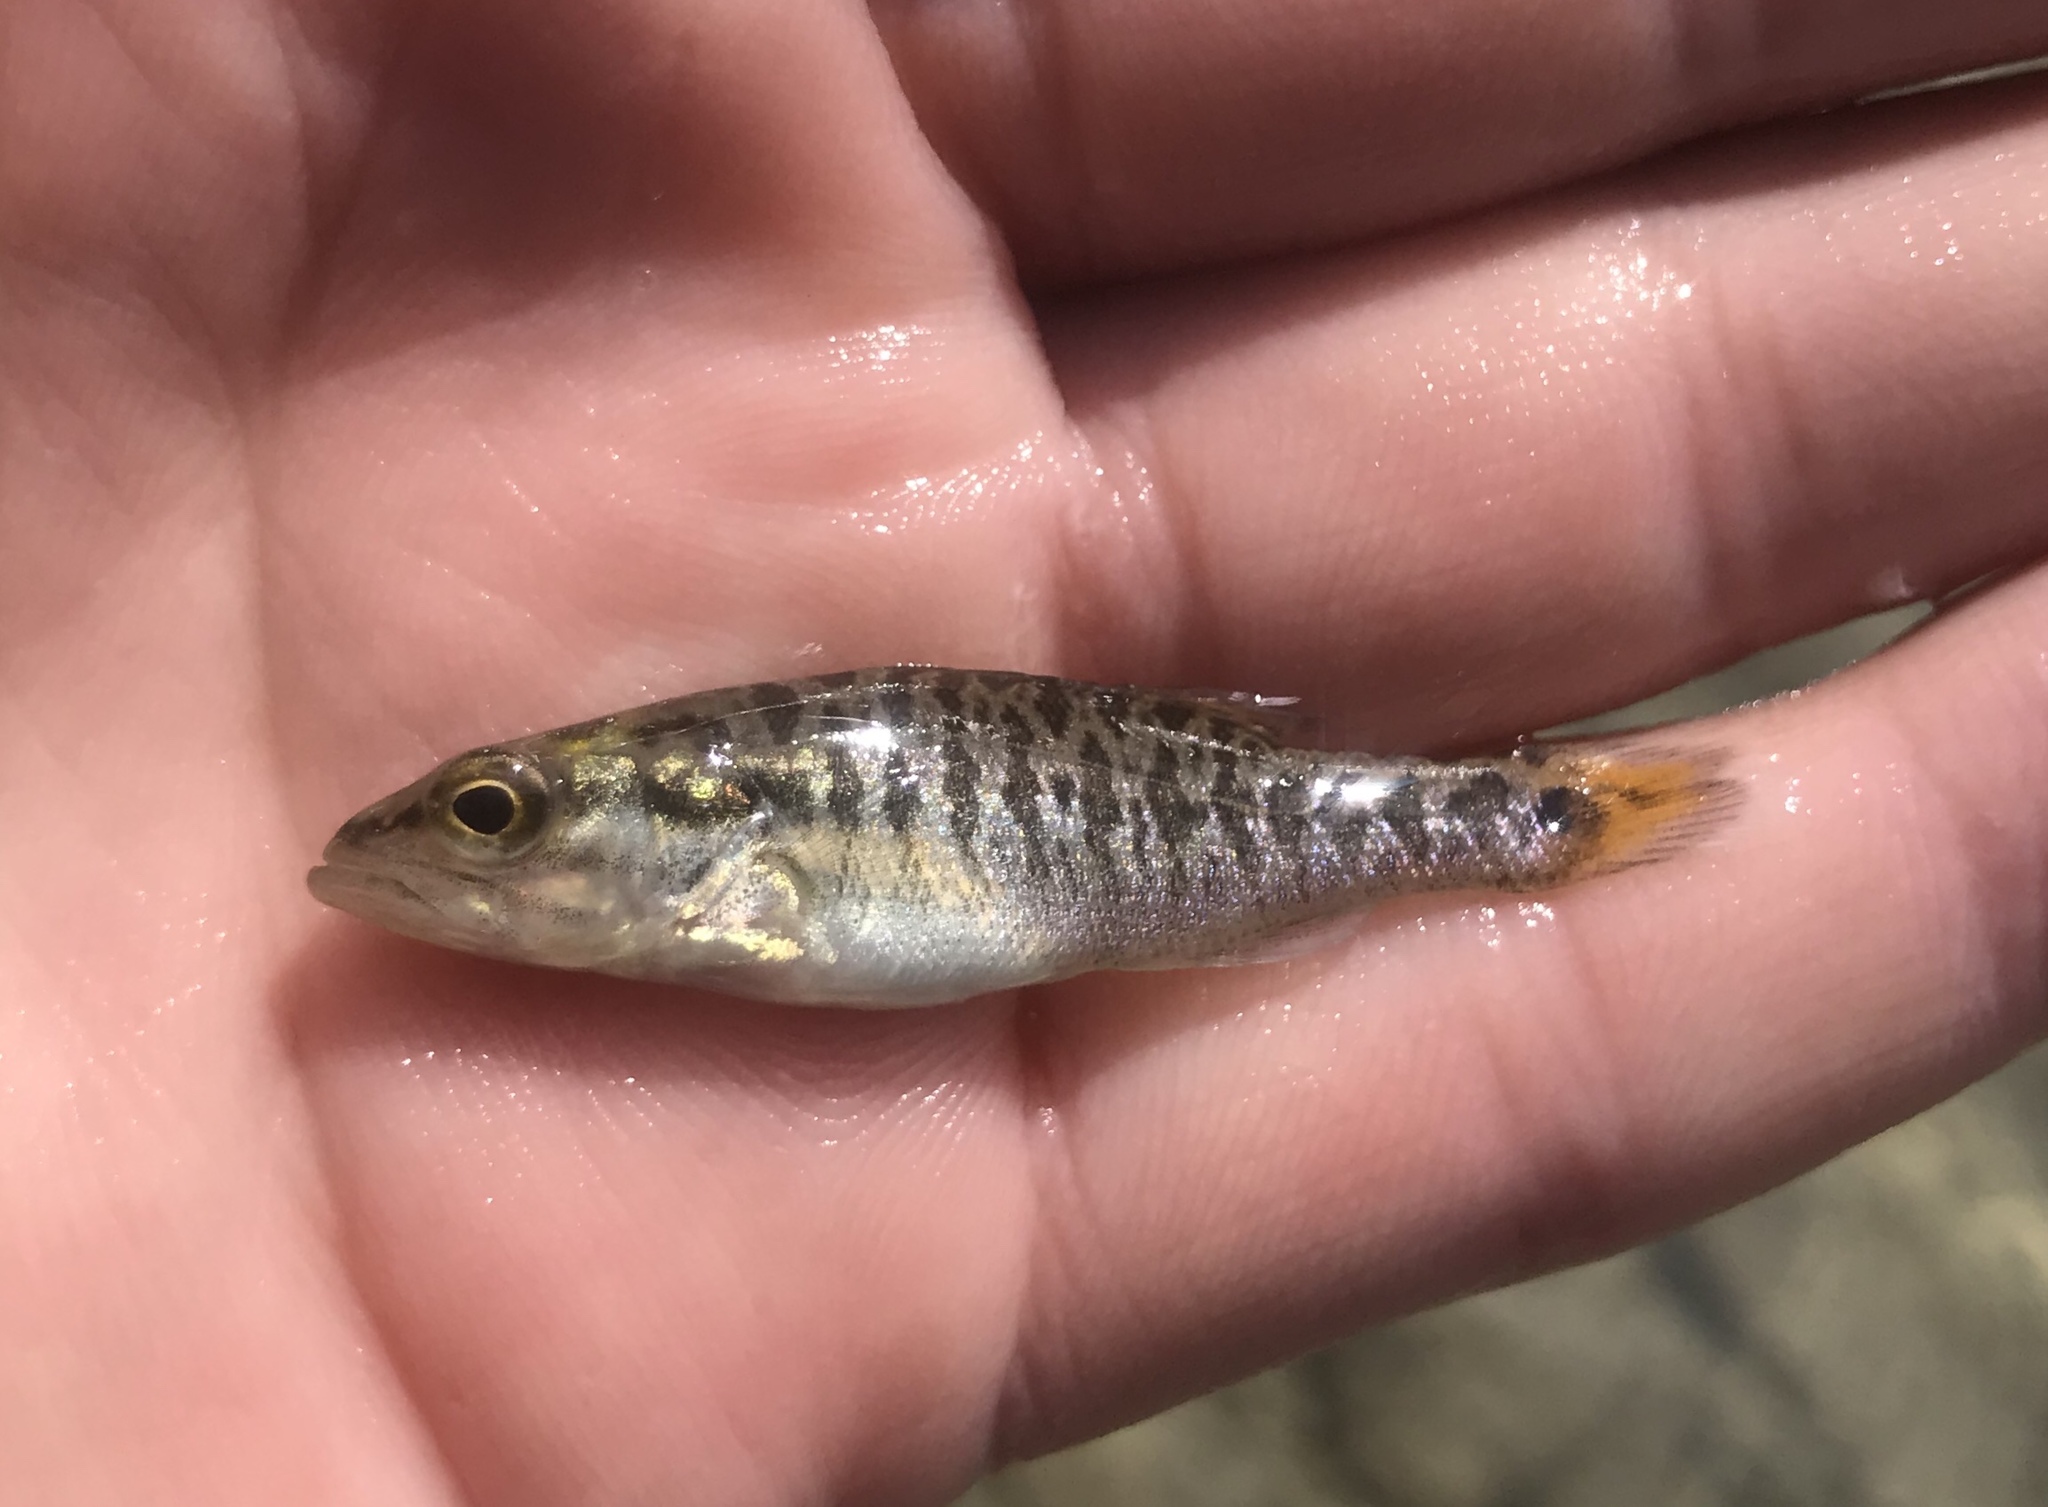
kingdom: Animalia
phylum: Chordata
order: Perciformes
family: Centrarchidae
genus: Micropterus
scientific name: Micropterus treculii
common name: Guadalupe bass
